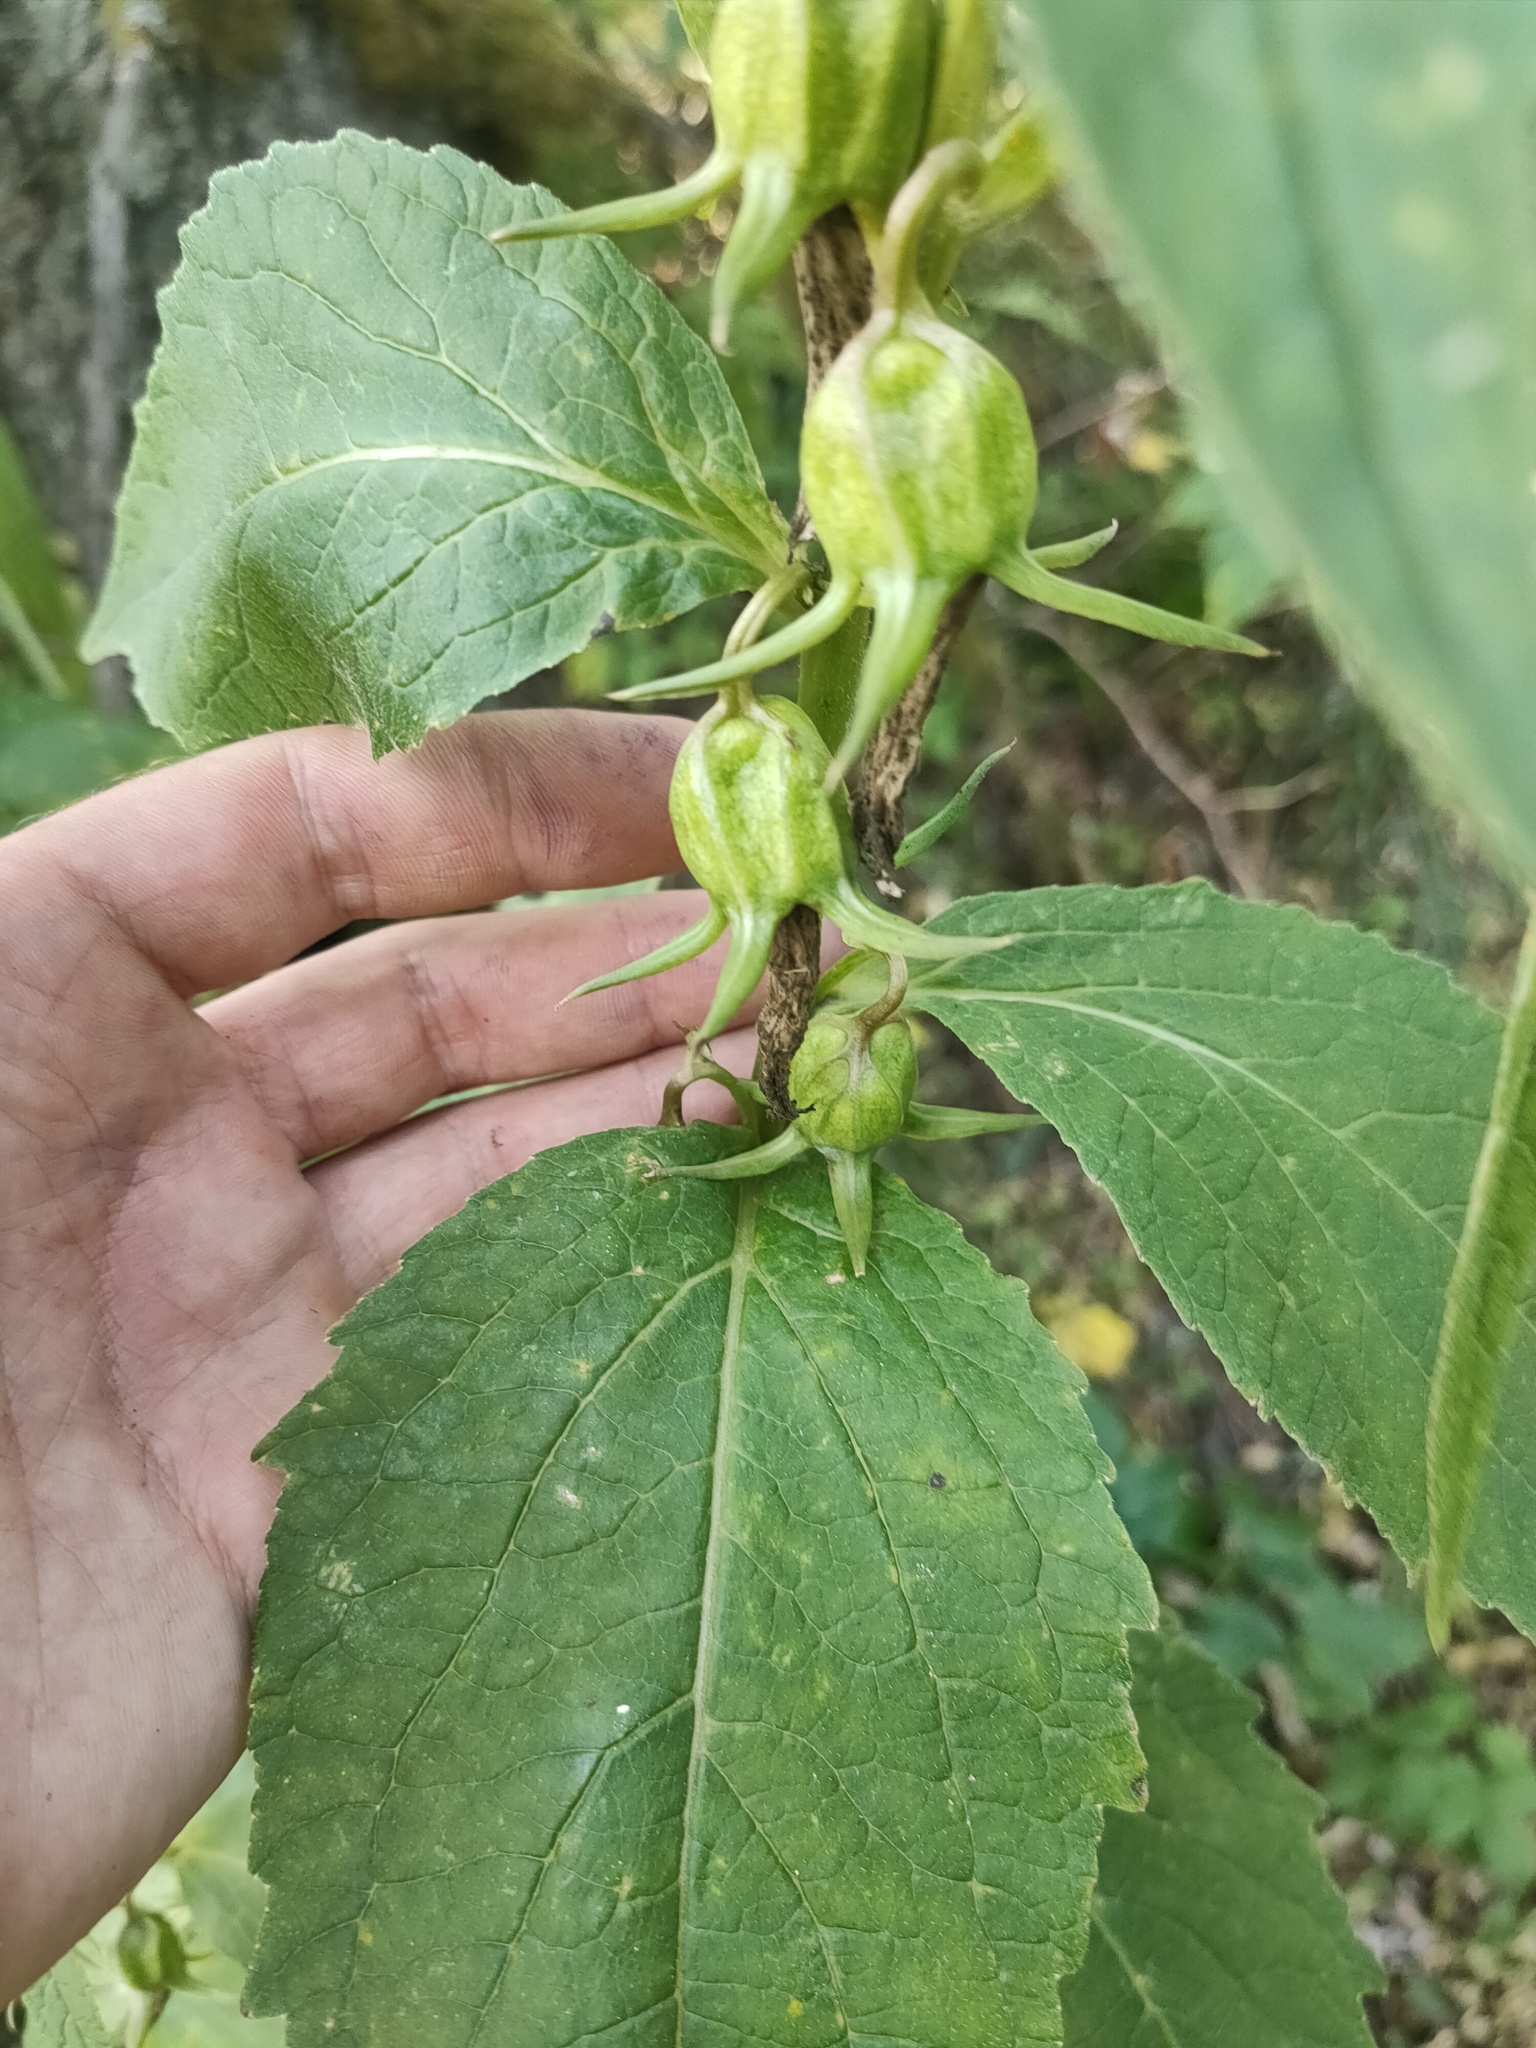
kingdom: Plantae
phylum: Tracheophyta
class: Magnoliopsida
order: Asterales
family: Campanulaceae
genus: Campanula
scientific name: Campanula latifolia
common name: Giant bellflower
